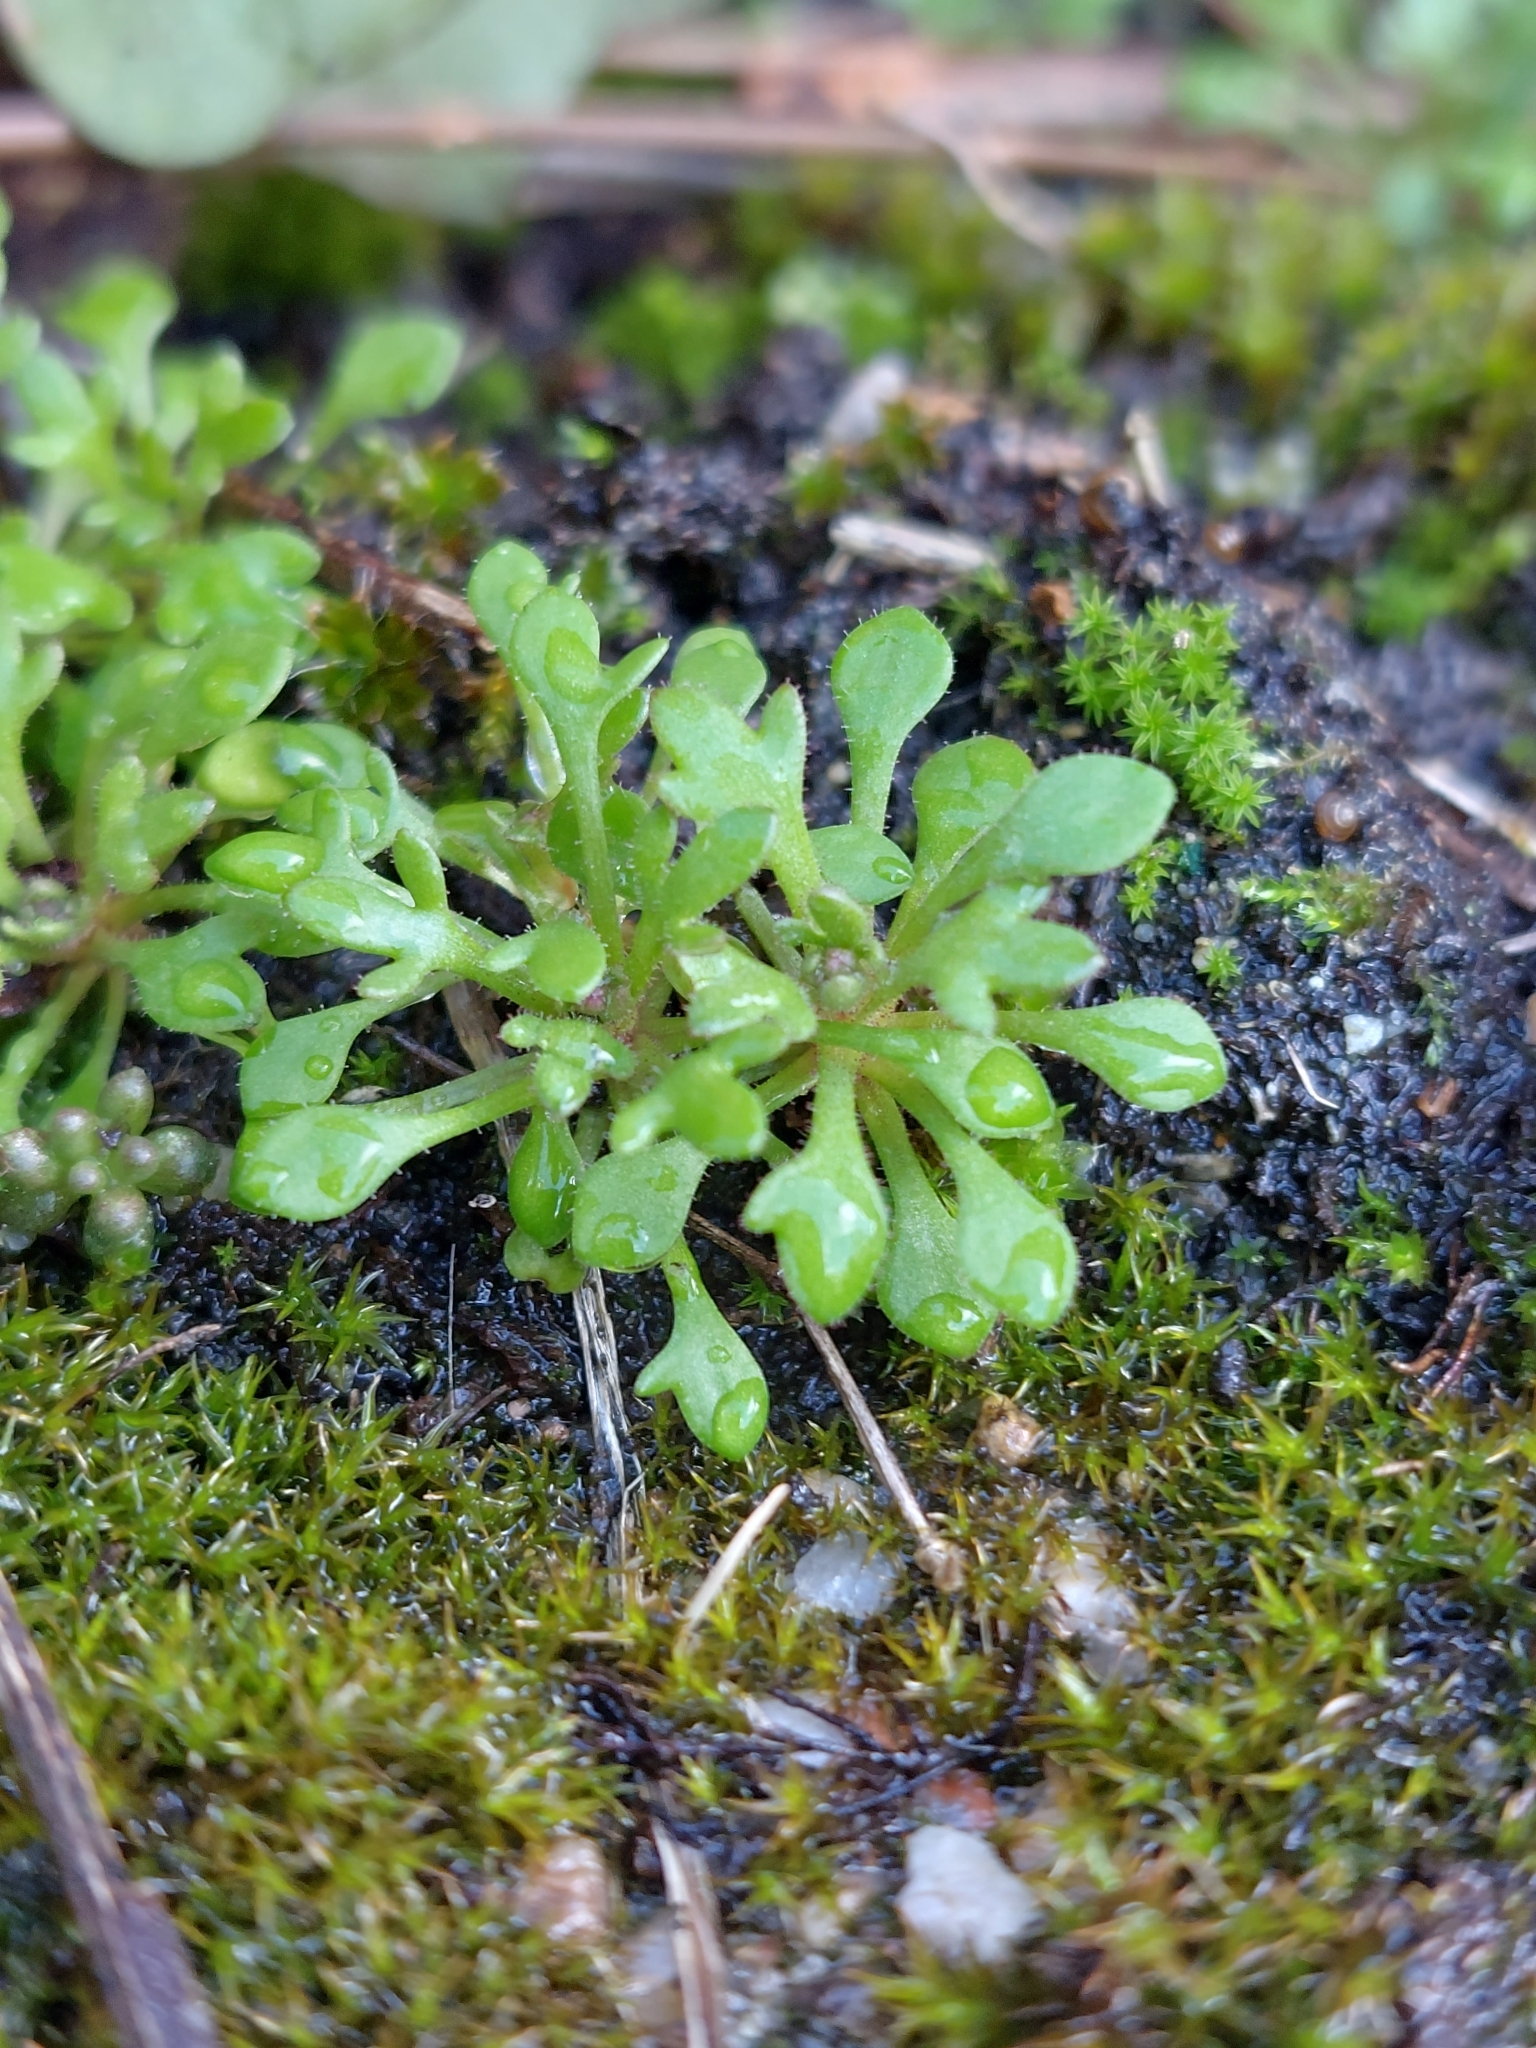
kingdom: Plantae
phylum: Tracheophyta
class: Magnoliopsida
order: Saxifragales
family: Saxifragaceae
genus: Saxifraga
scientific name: Saxifraga tridactylites
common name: Rue-leaved saxifrage
